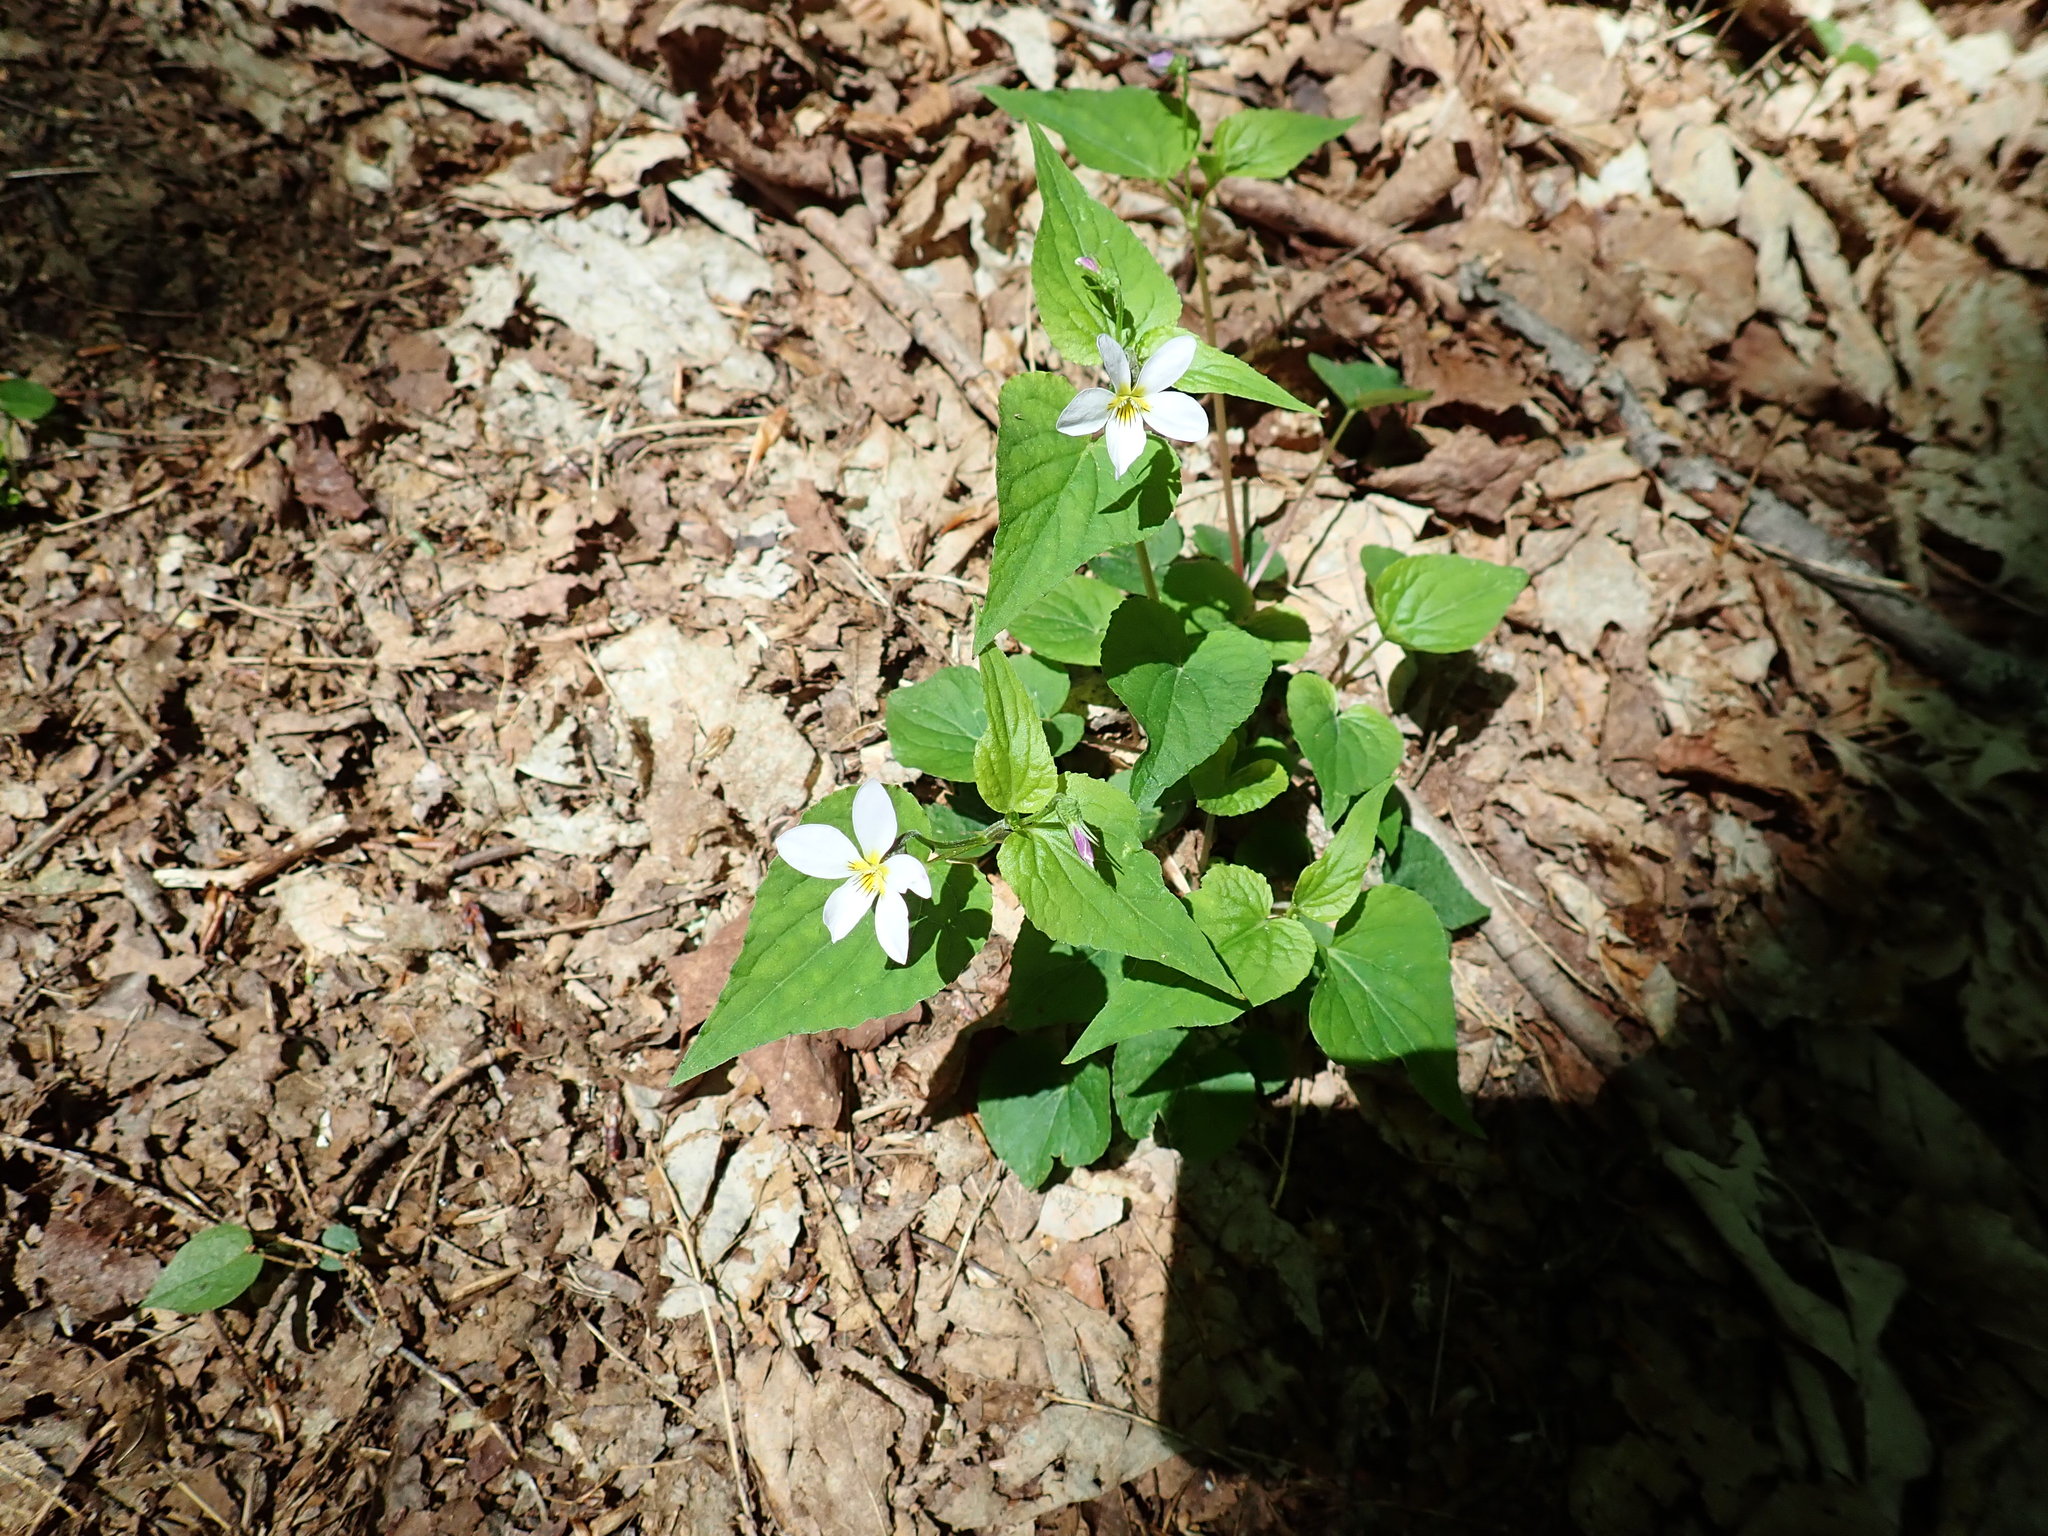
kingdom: Plantae
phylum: Tracheophyta
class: Magnoliopsida
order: Malpighiales
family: Violaceae
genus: Viola
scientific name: Viola canadensis
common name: Canada violet
